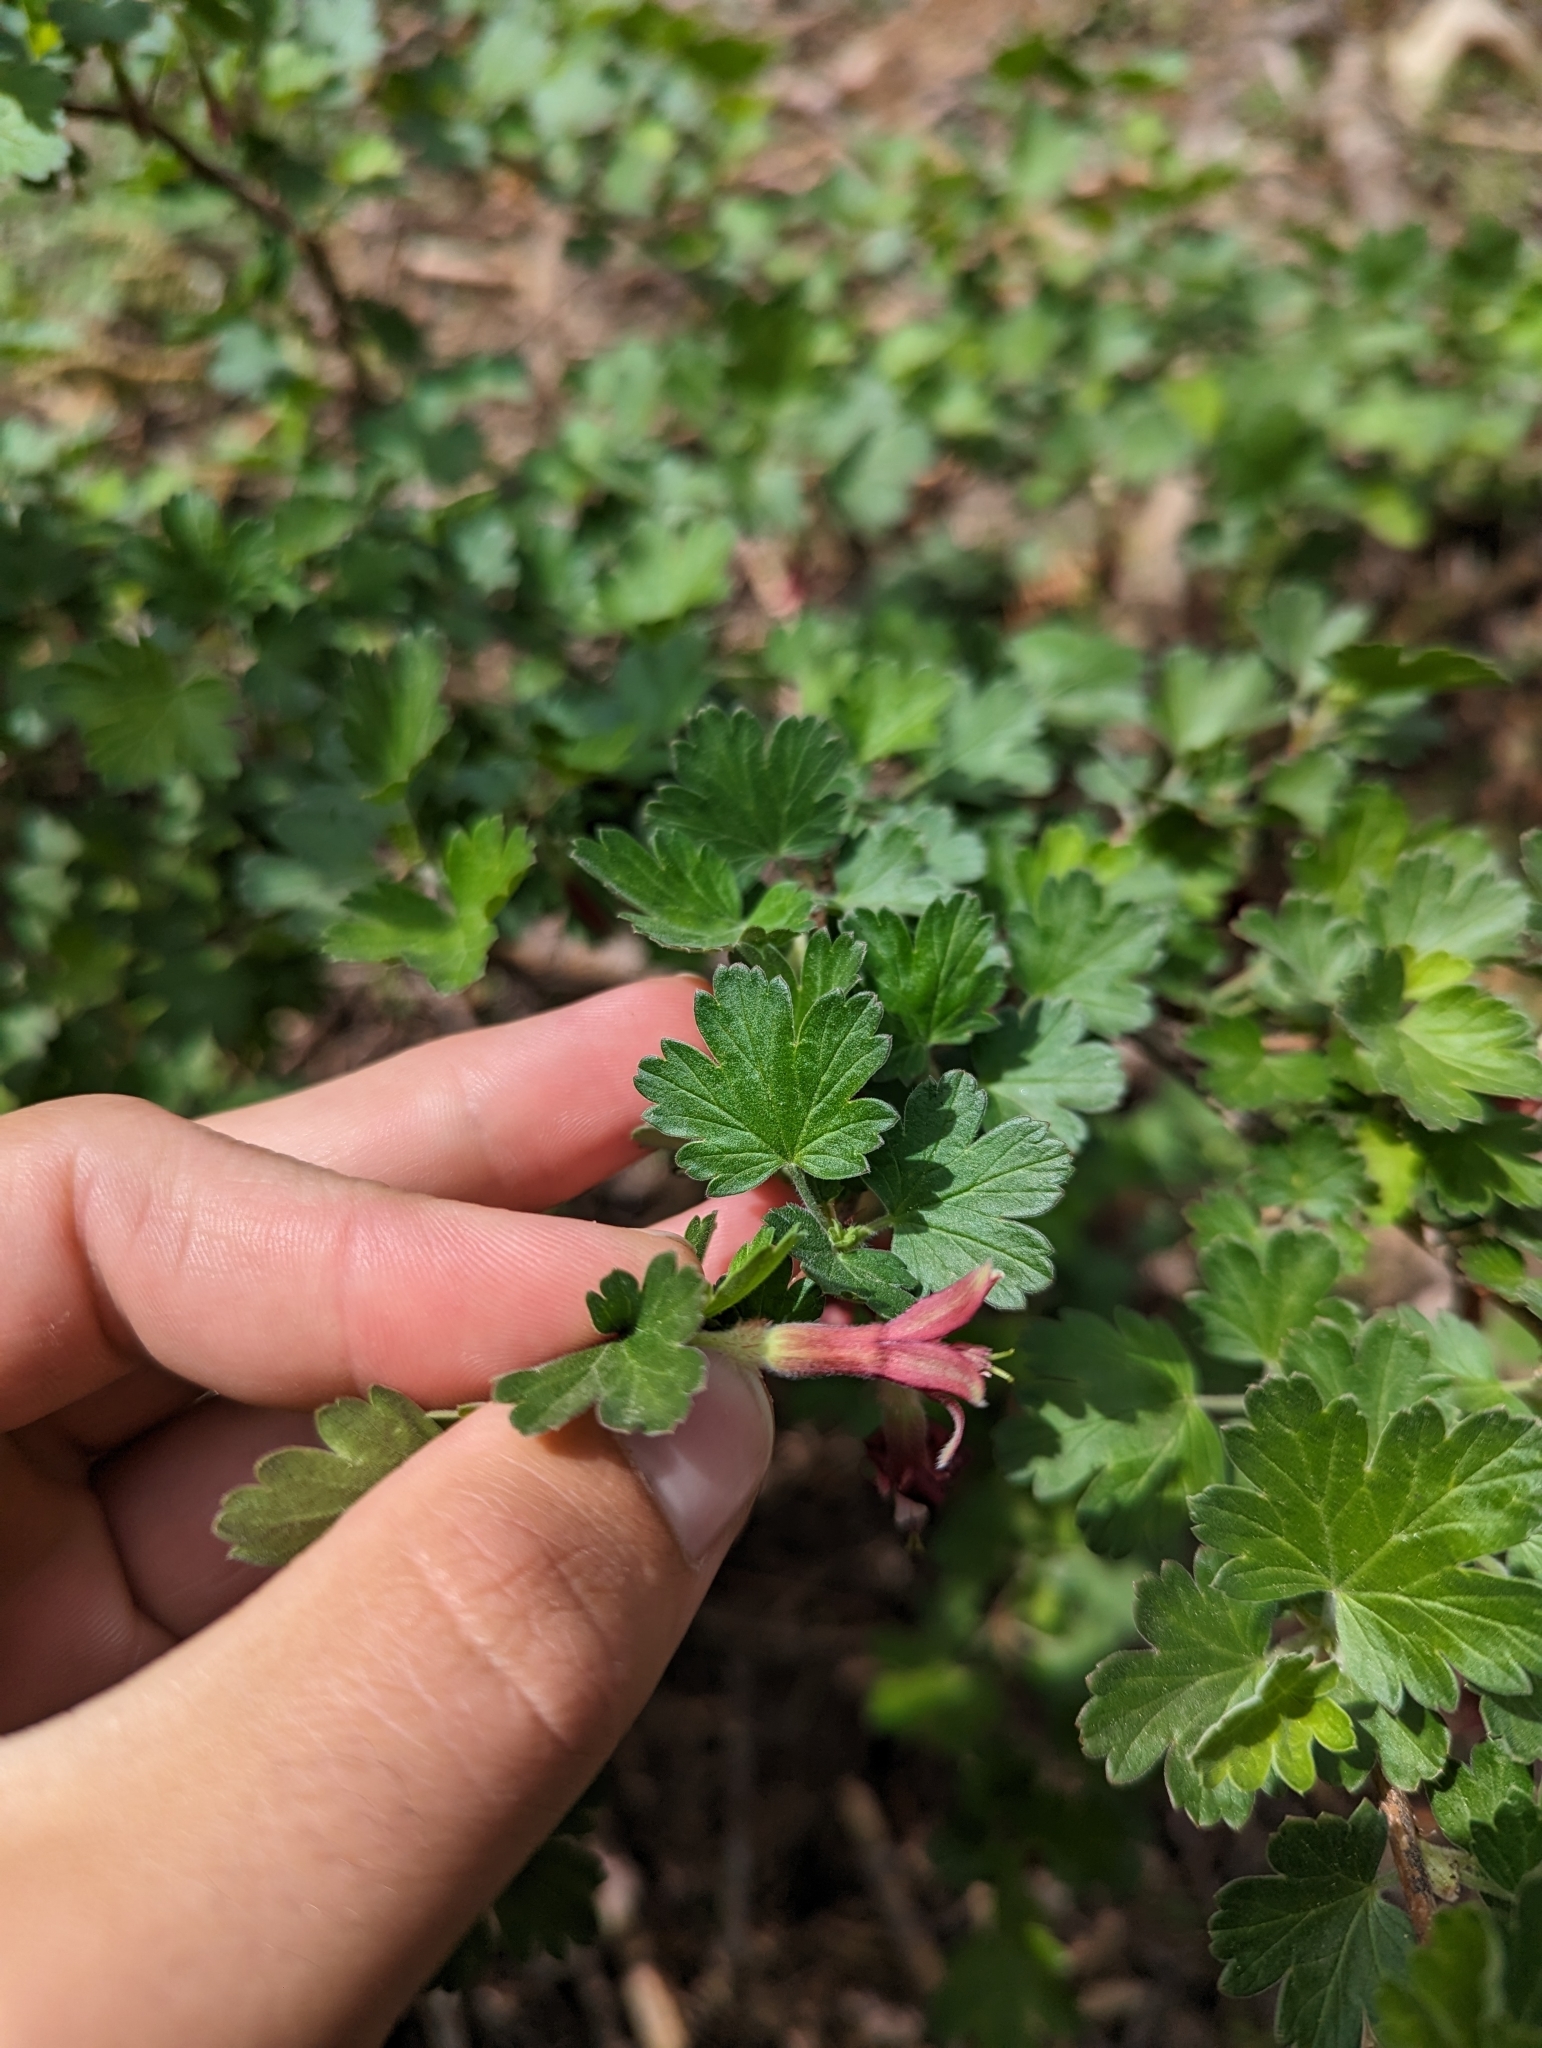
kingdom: Plantae
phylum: Tracheophyta
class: Magnoliopsida
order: Saxifragales
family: Grossulariaceae
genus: Ribes
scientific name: Ribes roezlii
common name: Sierra gooseberry
